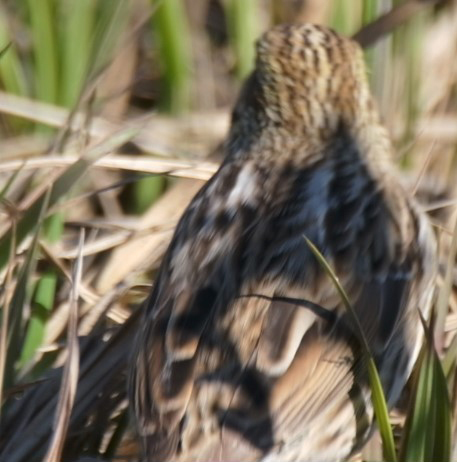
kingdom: Animalia
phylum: Chordata
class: Aves
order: Passeriformes
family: Passerellidae
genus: Passerculus
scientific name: Passerculus sandwichensis
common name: Savannah sparrow
